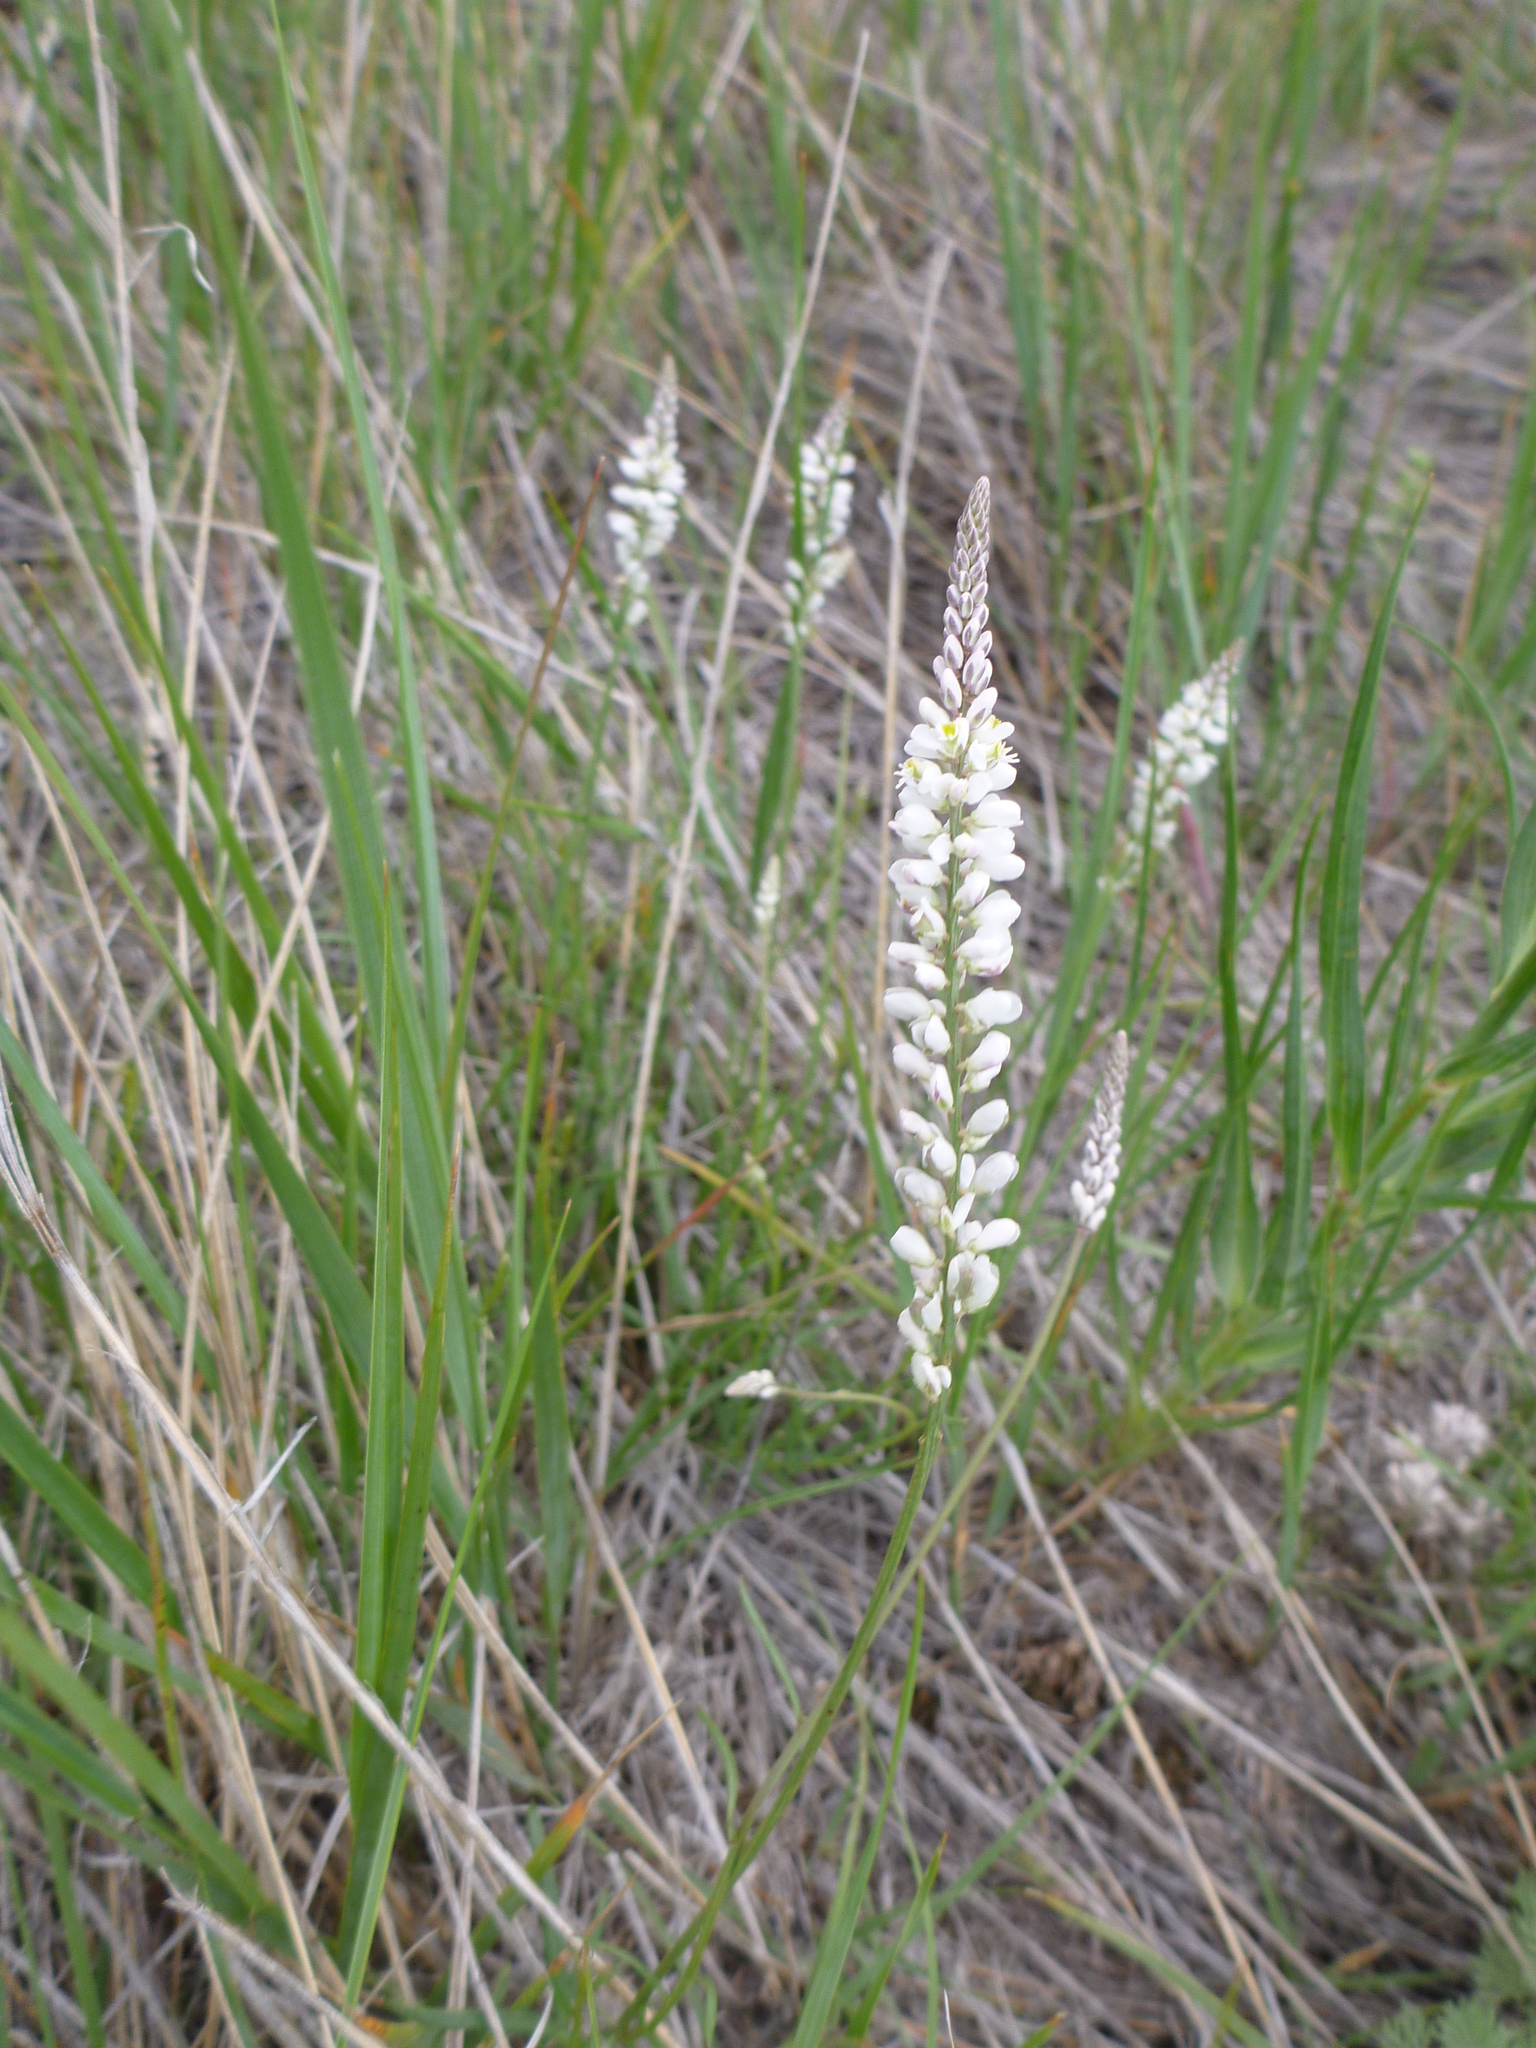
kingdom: Plantae
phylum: Tracheophyta
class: Magnoliopsida
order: Fabales
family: Polygalaceae
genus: Polygala
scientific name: Polygala alba
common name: White milkwort
